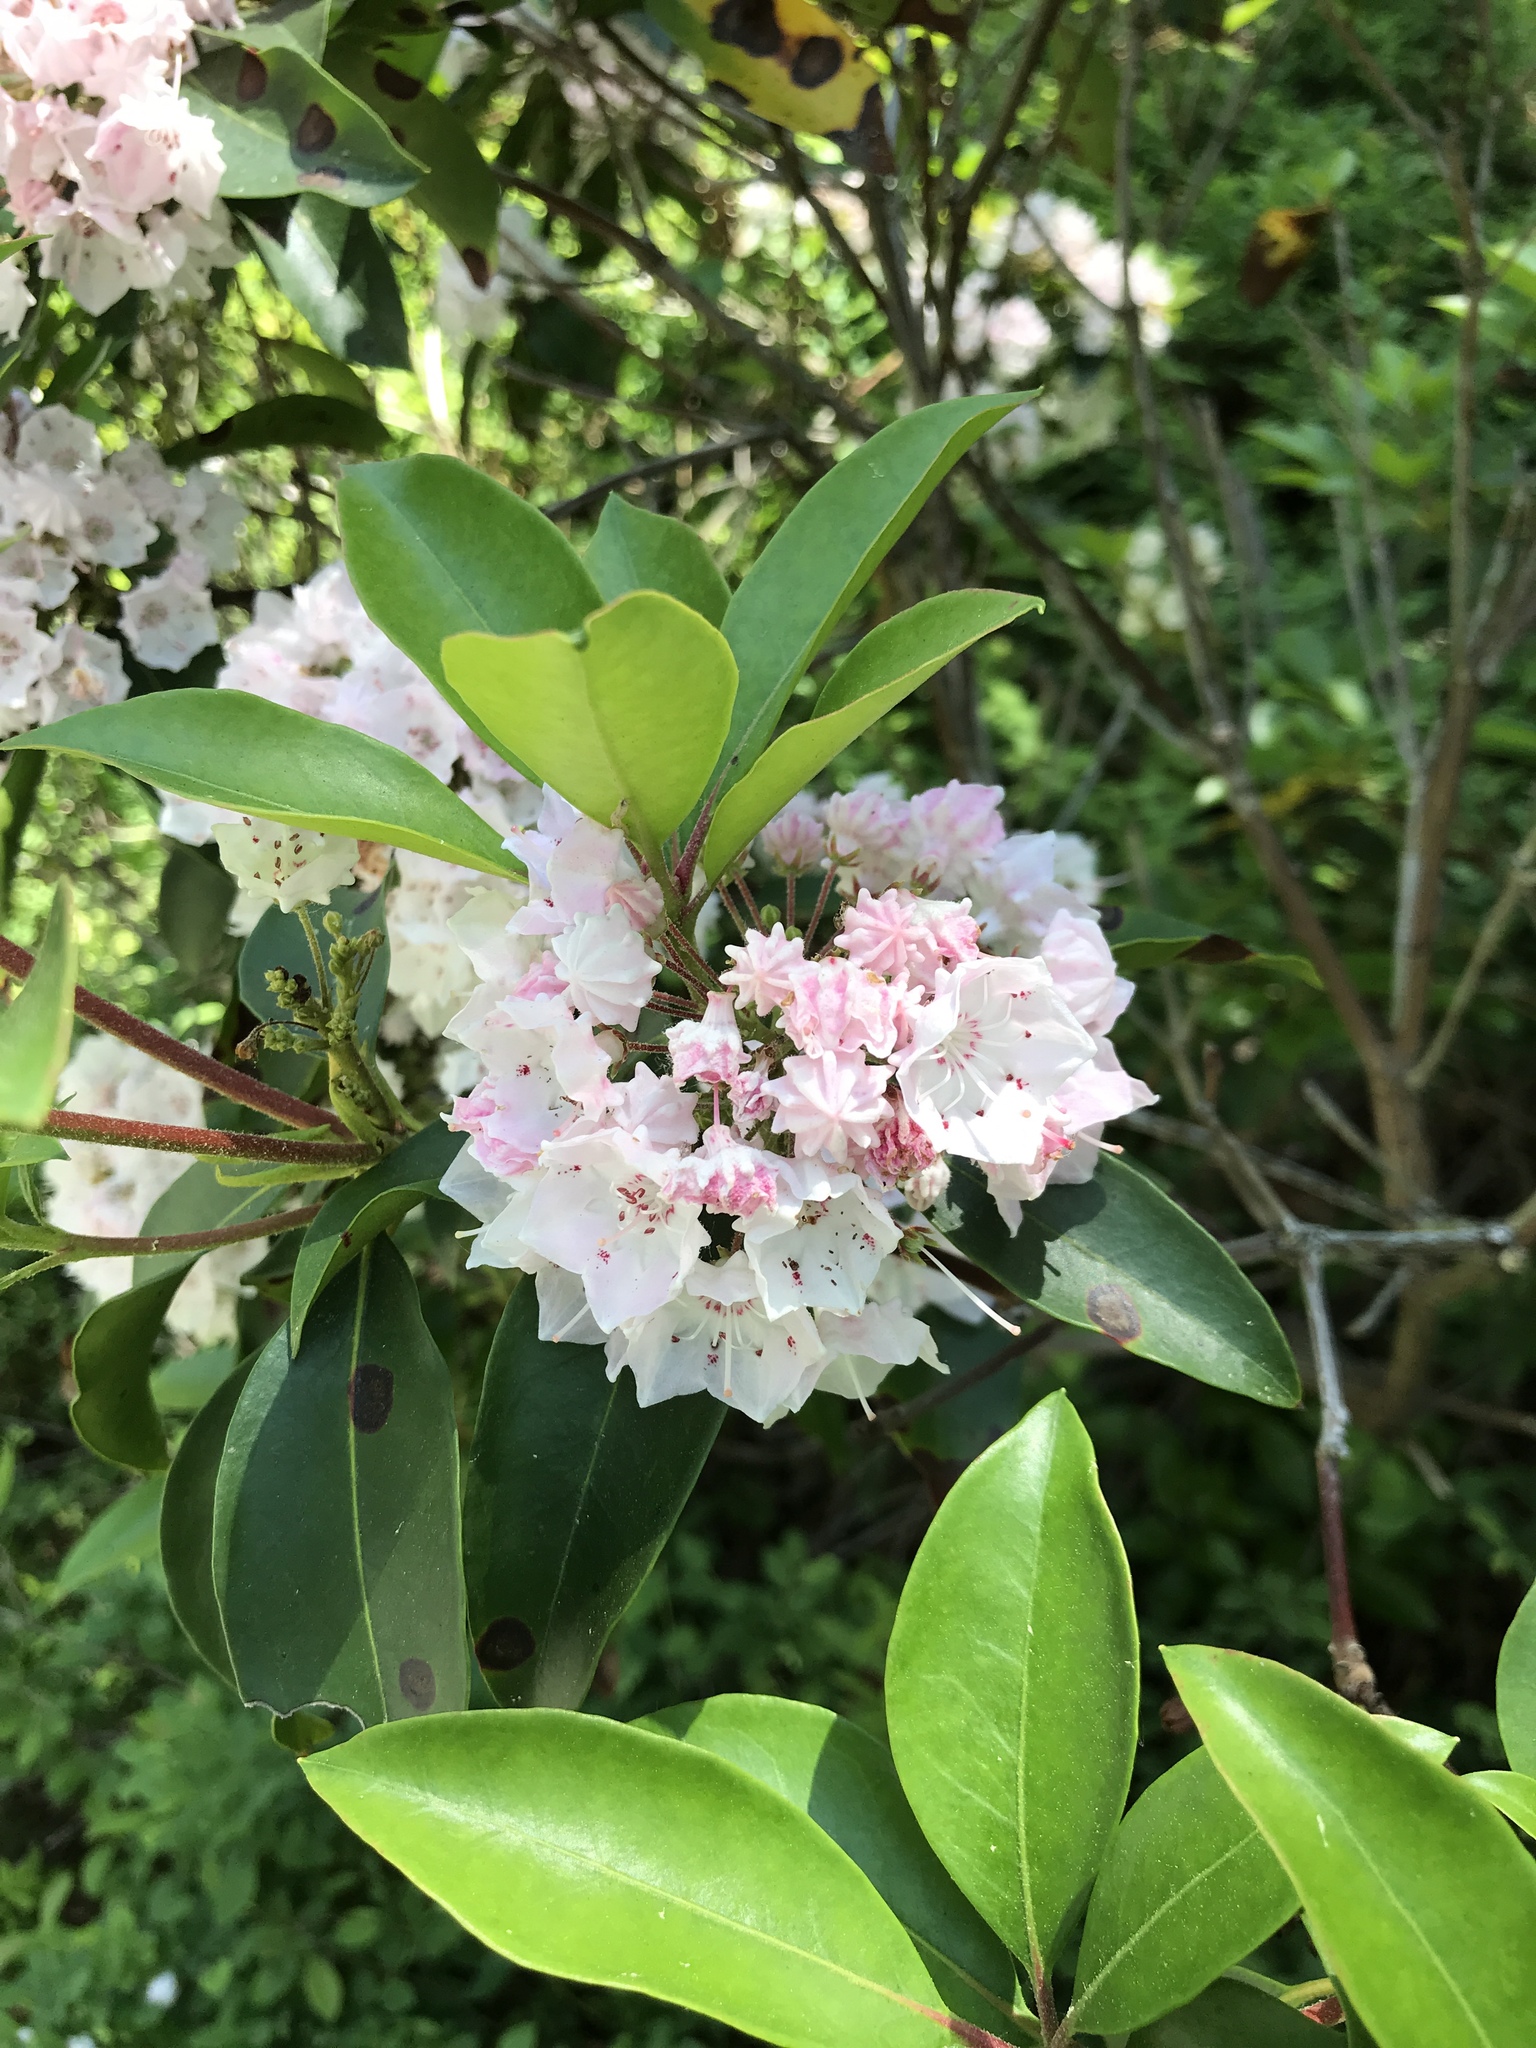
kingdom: Plantae
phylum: Tracheophyta
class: Magnoliopsida
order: Ericales
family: Ericaceae
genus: Kalmia
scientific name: Kalmia latifolia
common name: Mountain-laurel
